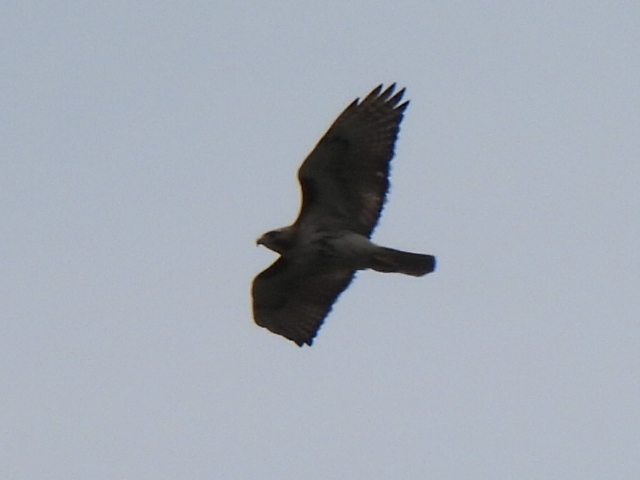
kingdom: Animalia
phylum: Chordata
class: Aves
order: Accipitriformes
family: Accipitridae
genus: Buteo
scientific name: Buteo jamaicensis
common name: Red-tailed hawk
